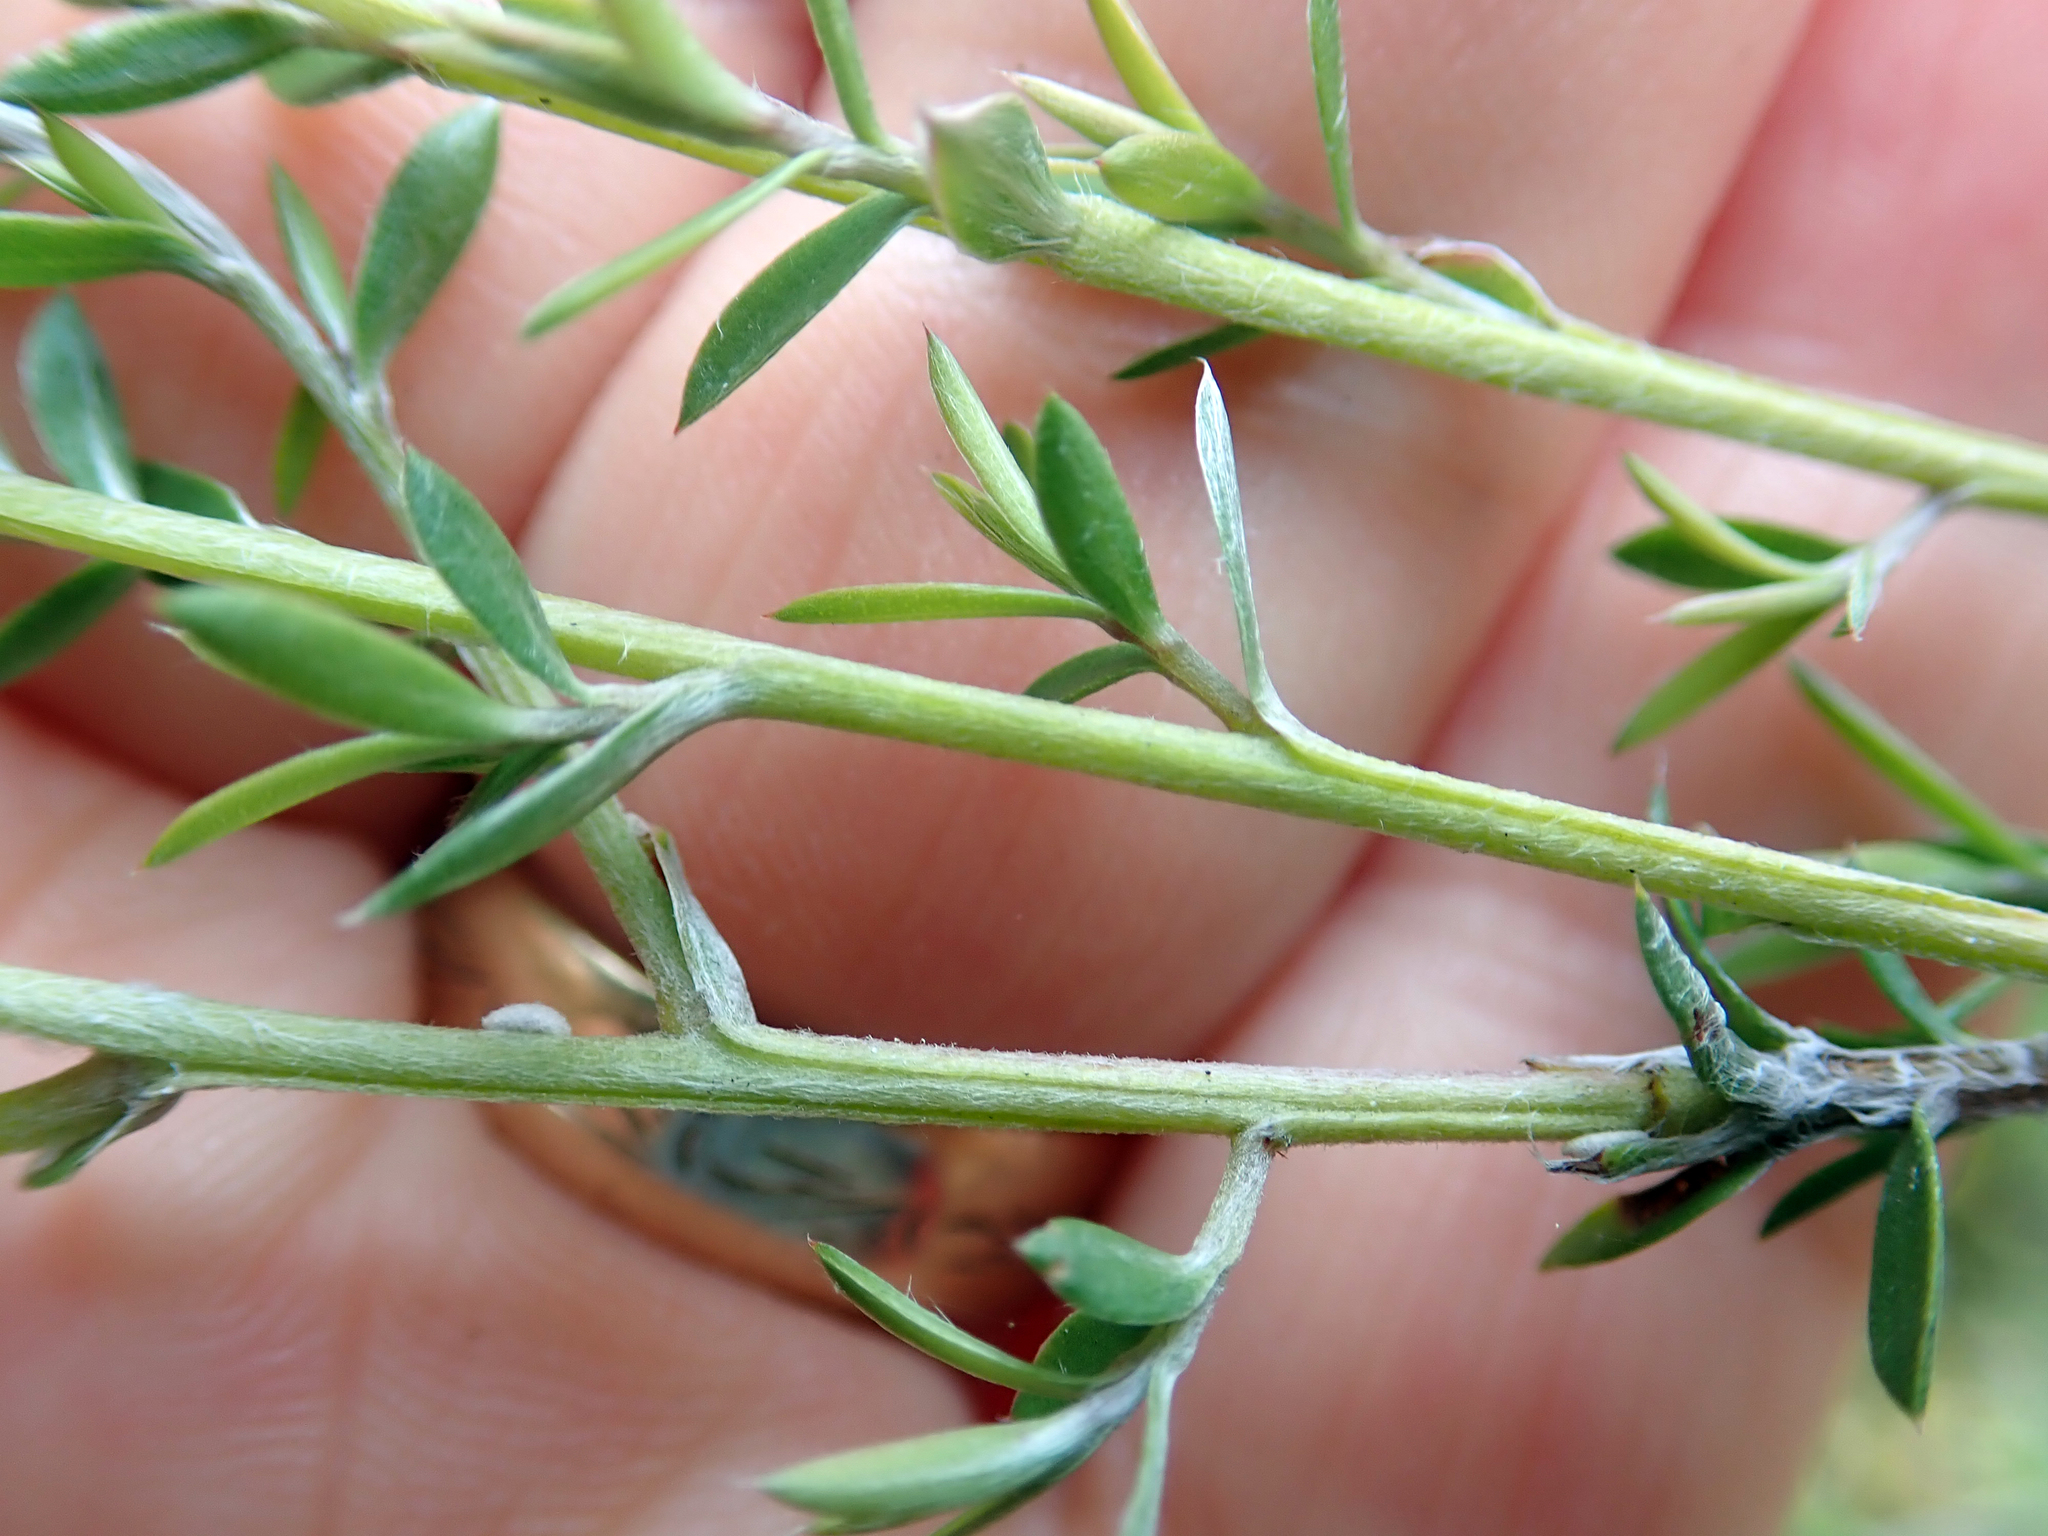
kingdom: Plantae
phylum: Tracheophyta
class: Magnoliopsida
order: Myrtales
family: Myrtaceae
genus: Leptospermum
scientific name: Leptospermum scoparium
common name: Broom tea-tree
